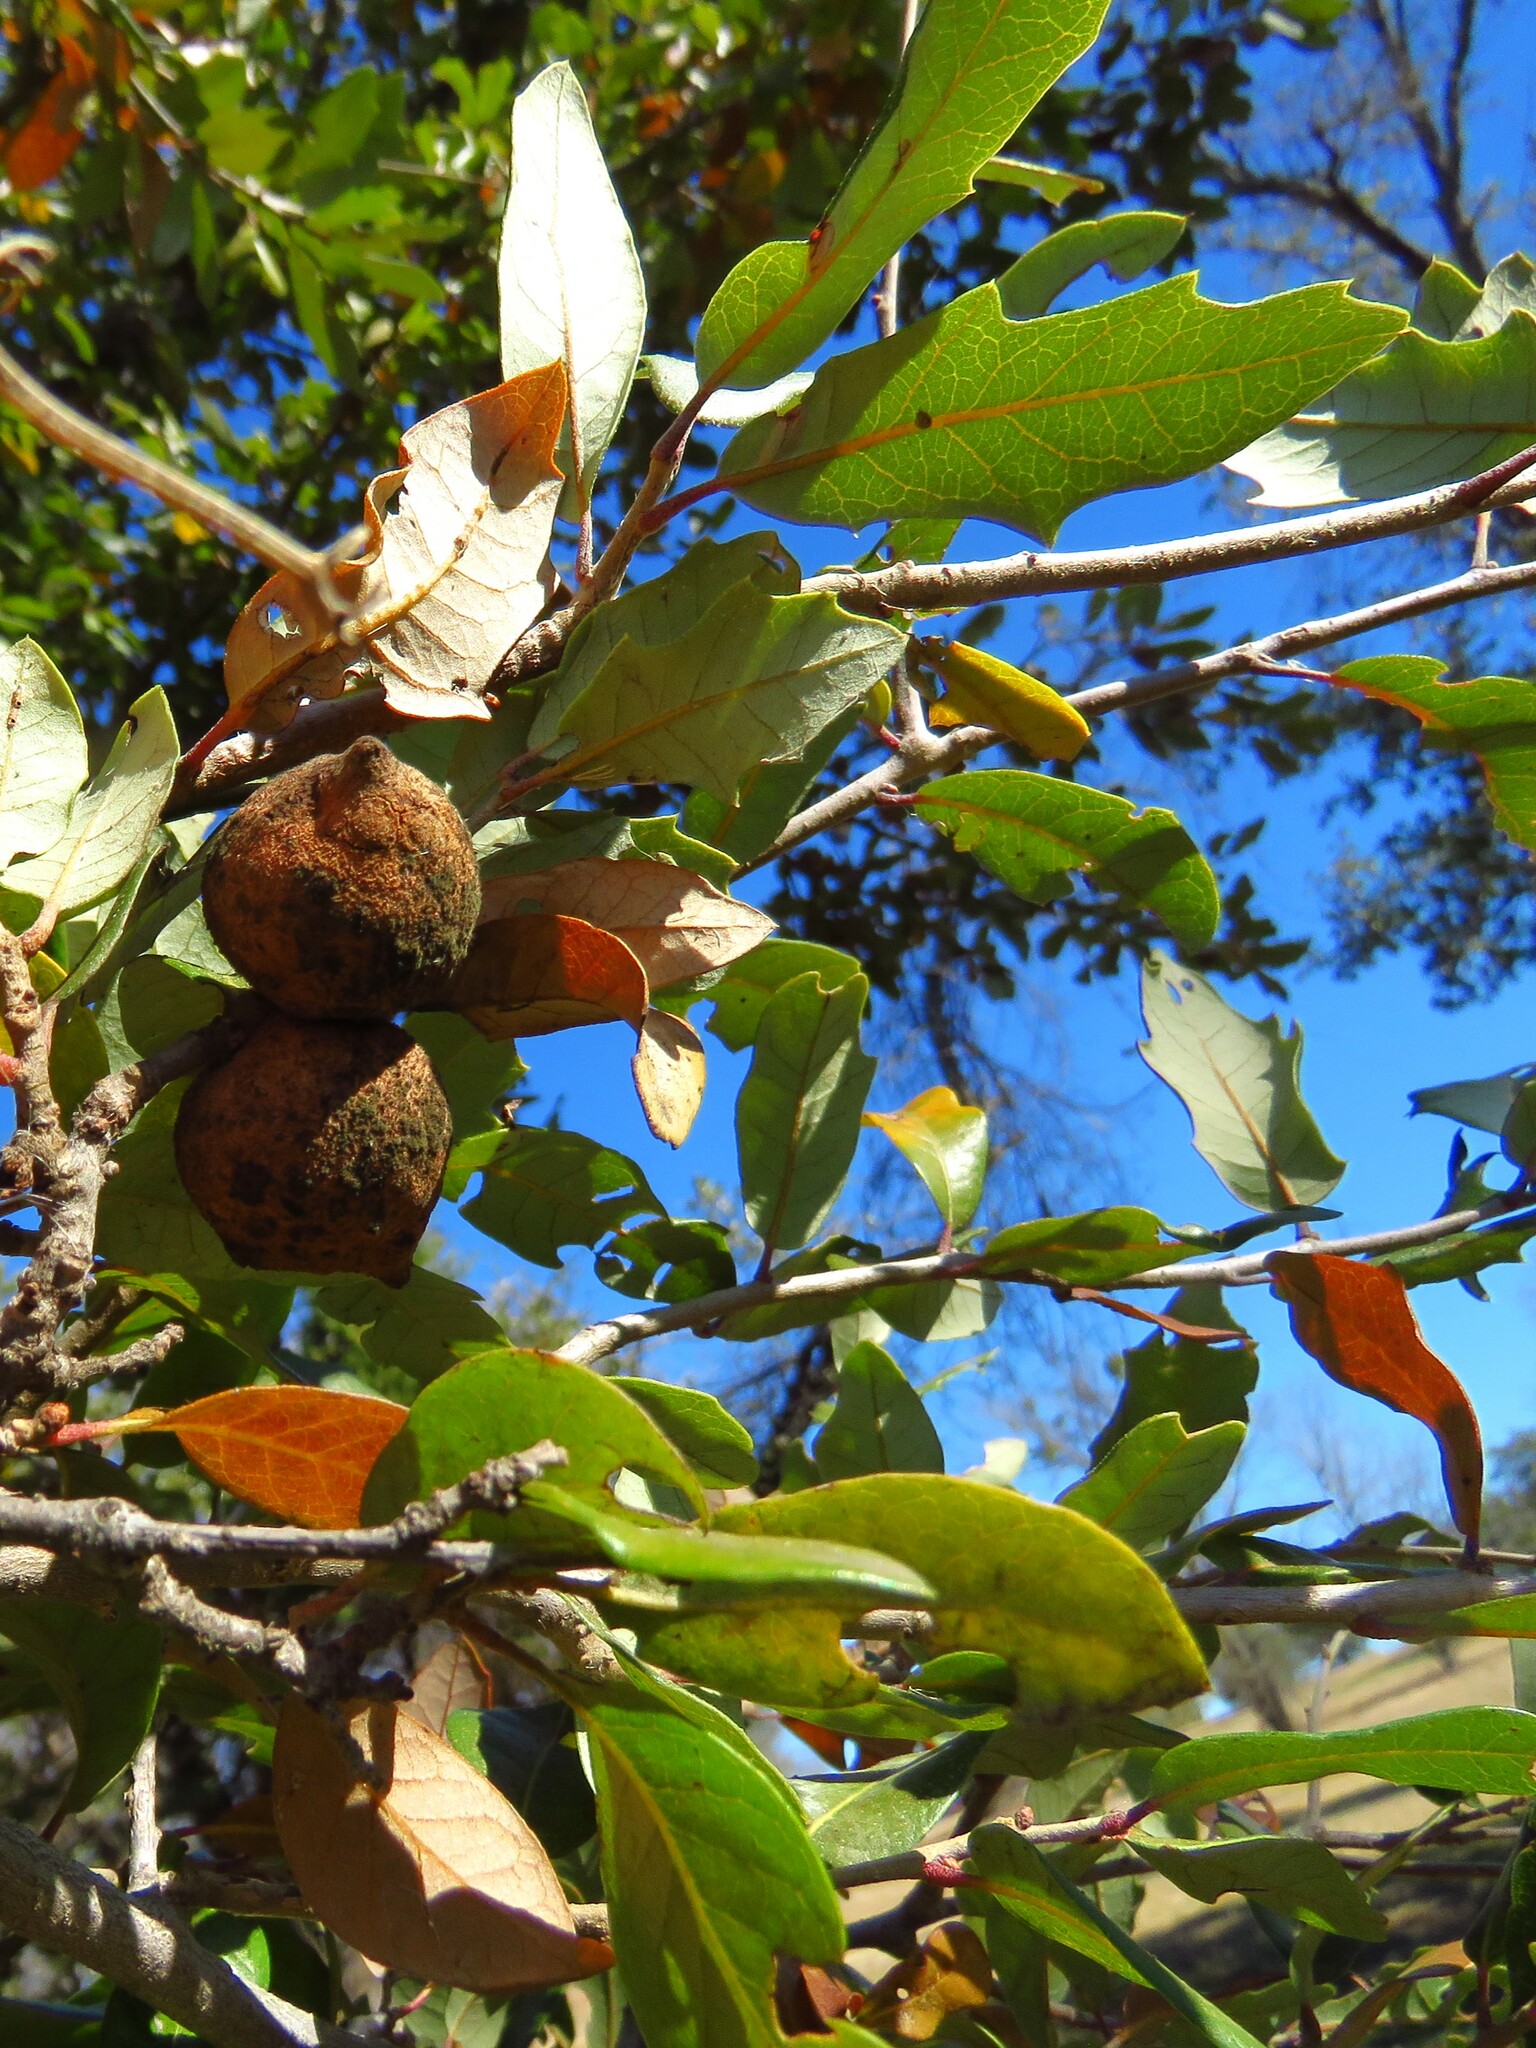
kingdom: Animalia
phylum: Arthropoda
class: Insecta
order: Hymenoptera
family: Cynipidae
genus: Disholcaspis
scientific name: Disholcaspis
